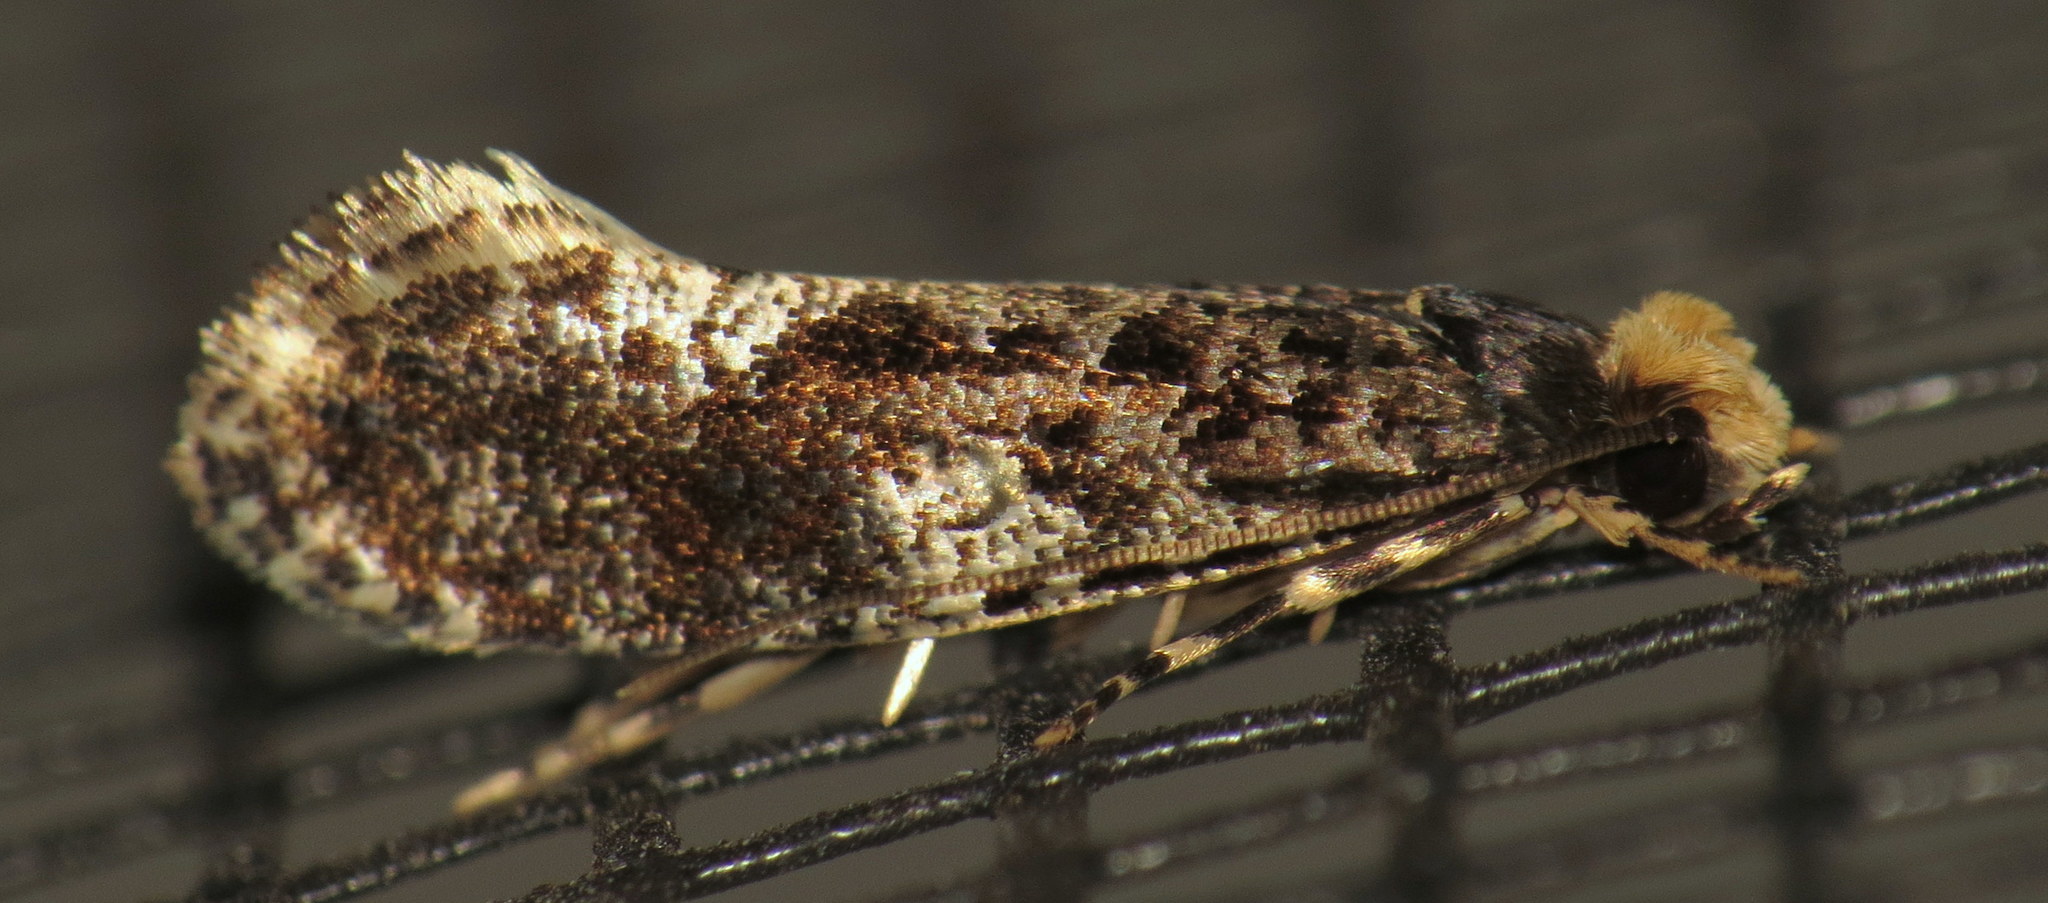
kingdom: Animalia
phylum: Arthropoda
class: Insecta
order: Lepidoptera
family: Tineidae
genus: Monopis
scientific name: Monopis marginistrigella
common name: White-blotched monopis moth
